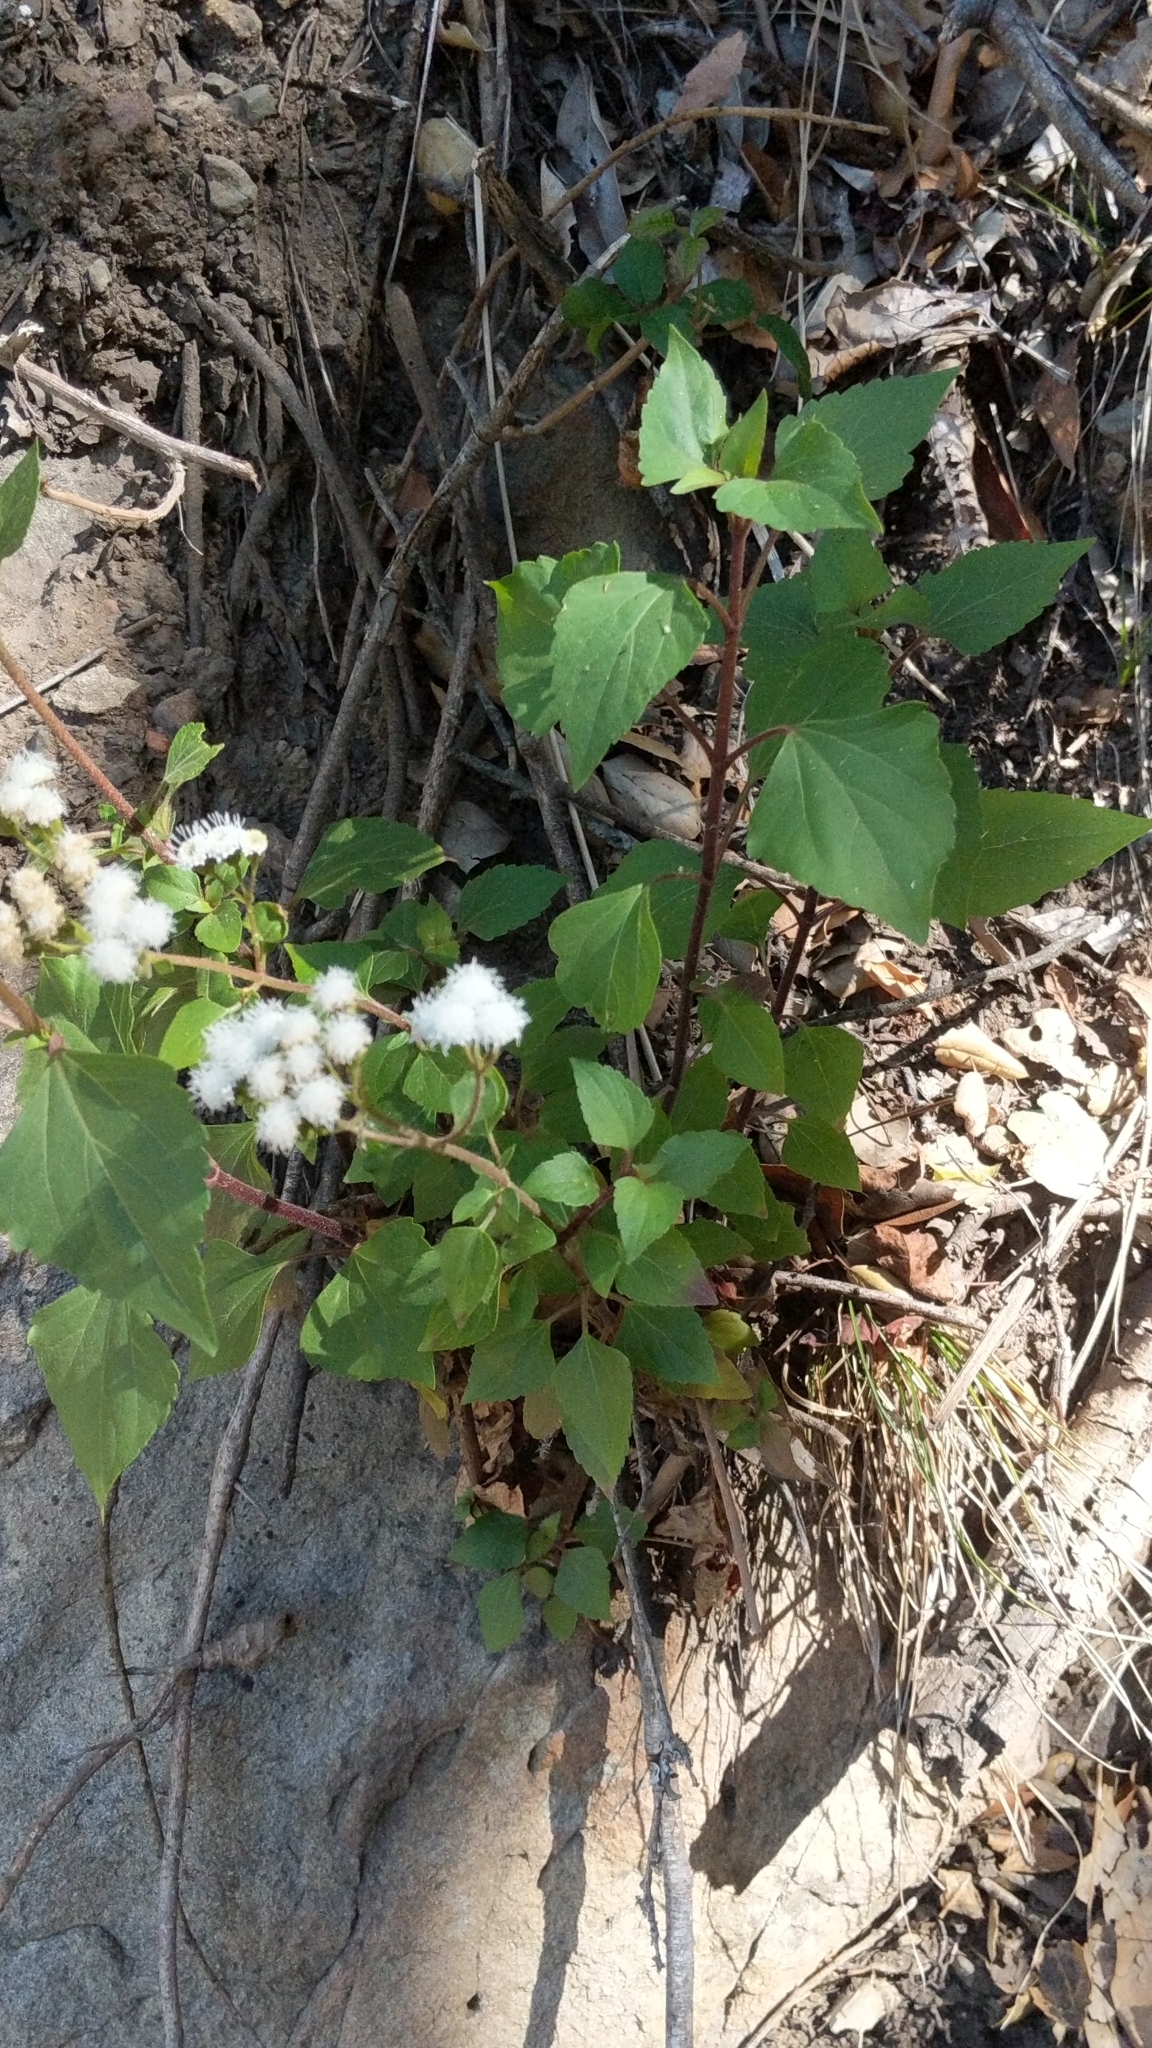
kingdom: Plantae
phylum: Tracheophyta
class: Magnoliopsida
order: Asterales
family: Asteraceae
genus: Ageratina
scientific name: Ageratina adenophora
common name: Sticky snakeroot
